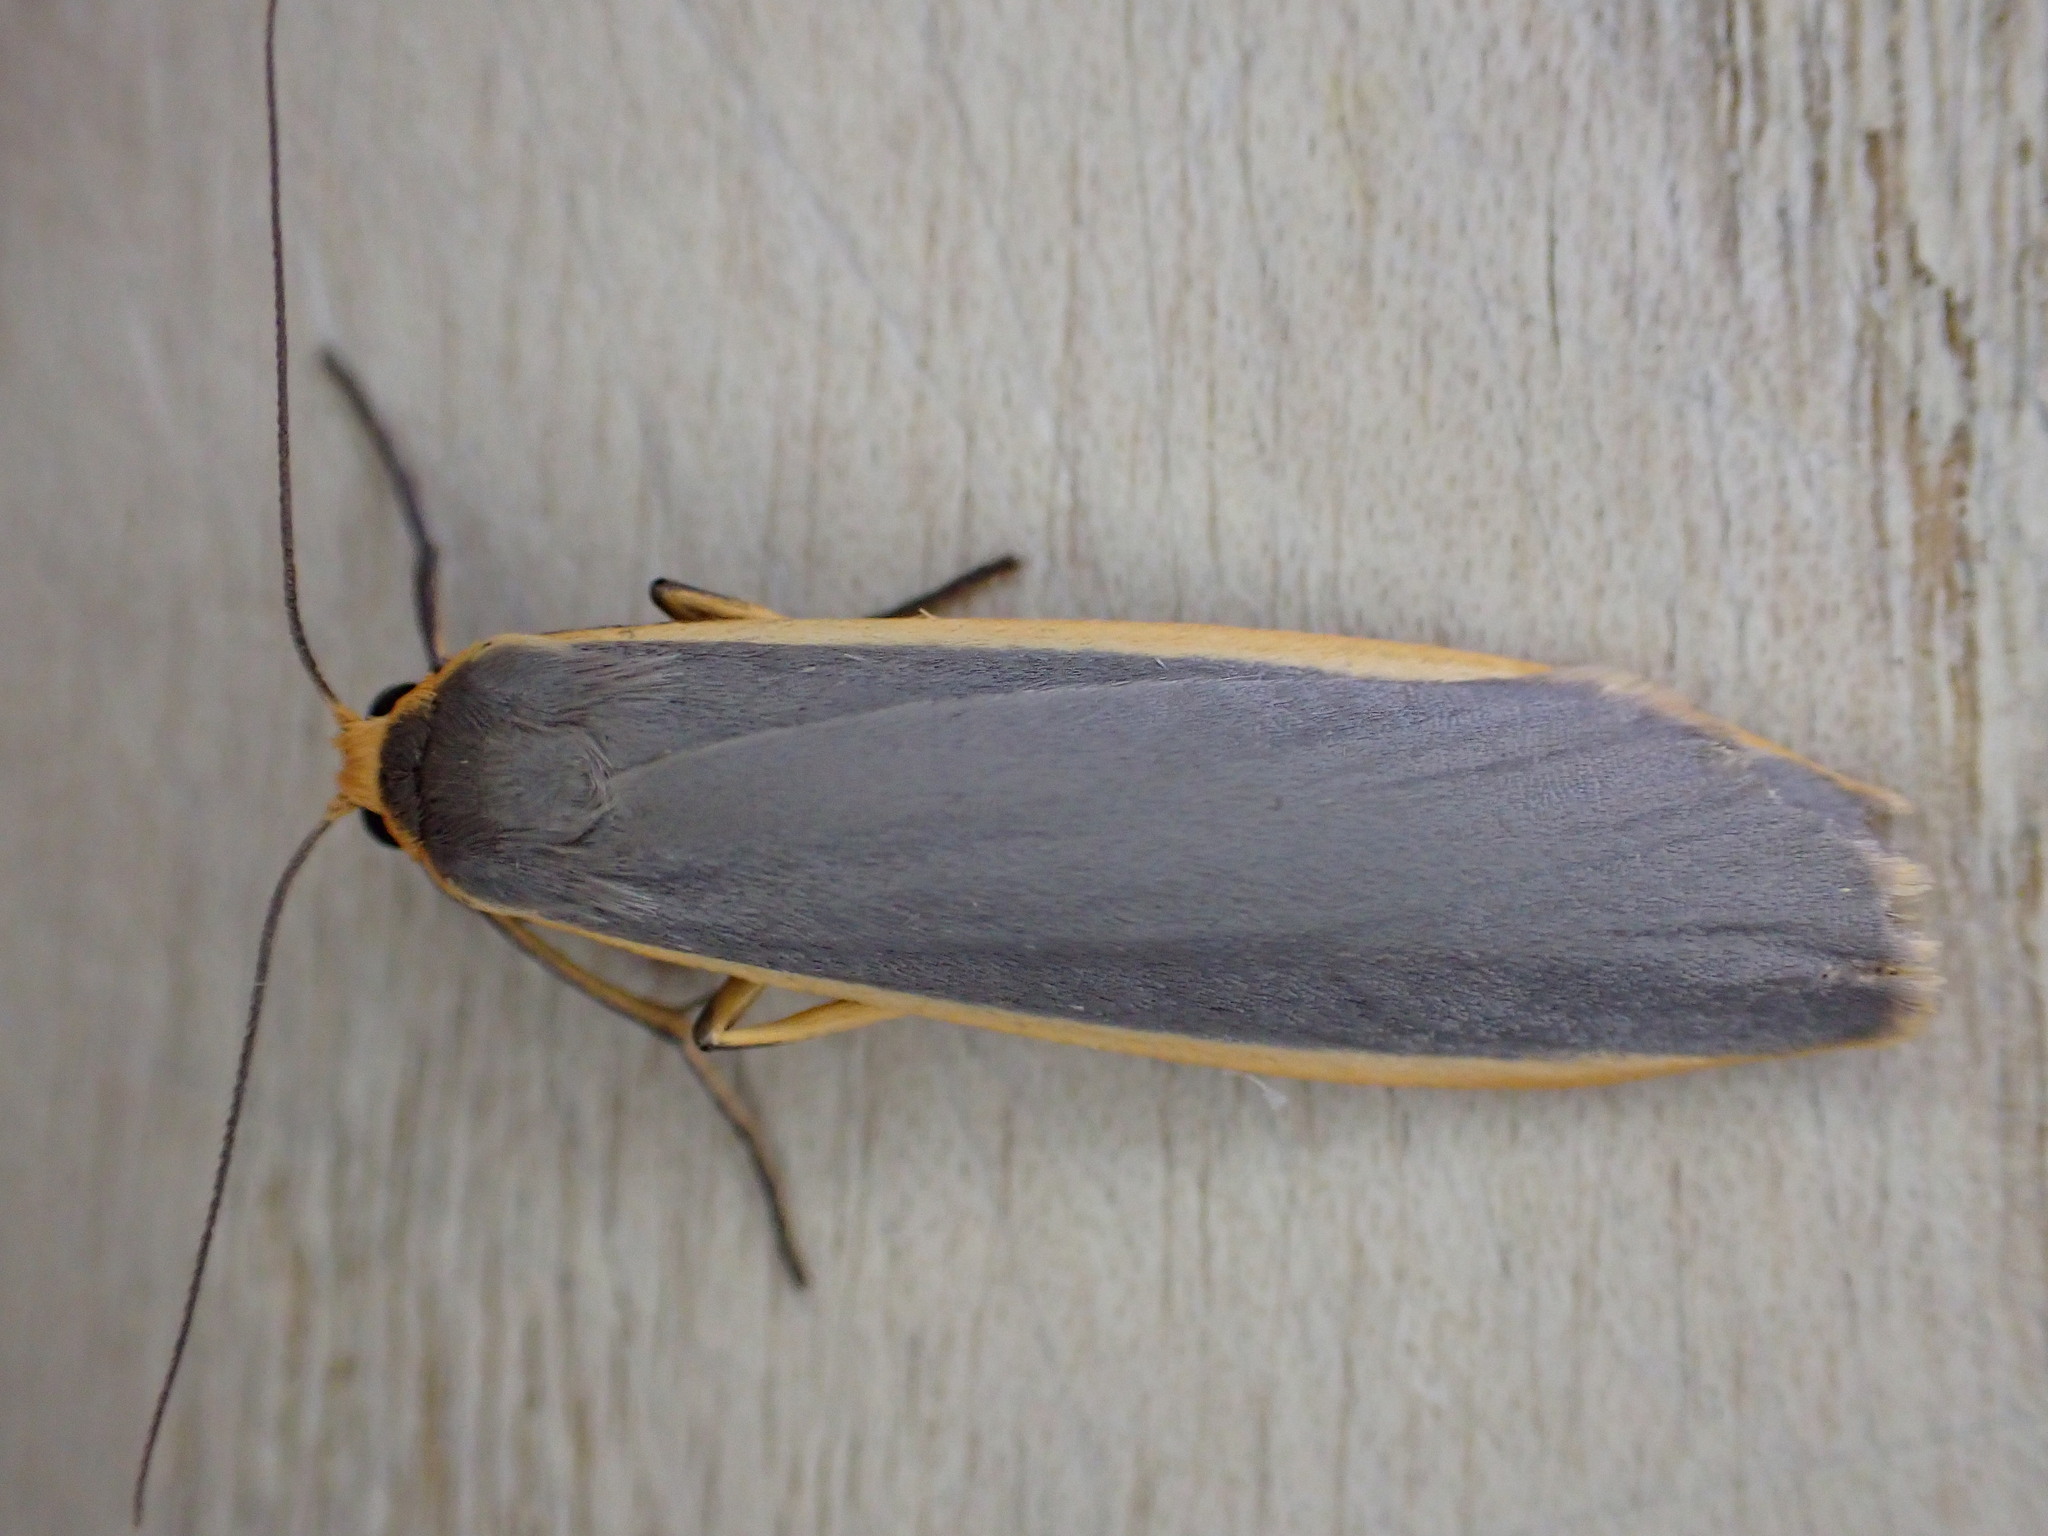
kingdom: Animalia
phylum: Arthropoda
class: Insecta
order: Lepidoptera
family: Erebidae
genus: Nyea
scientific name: Nyea lurideola
